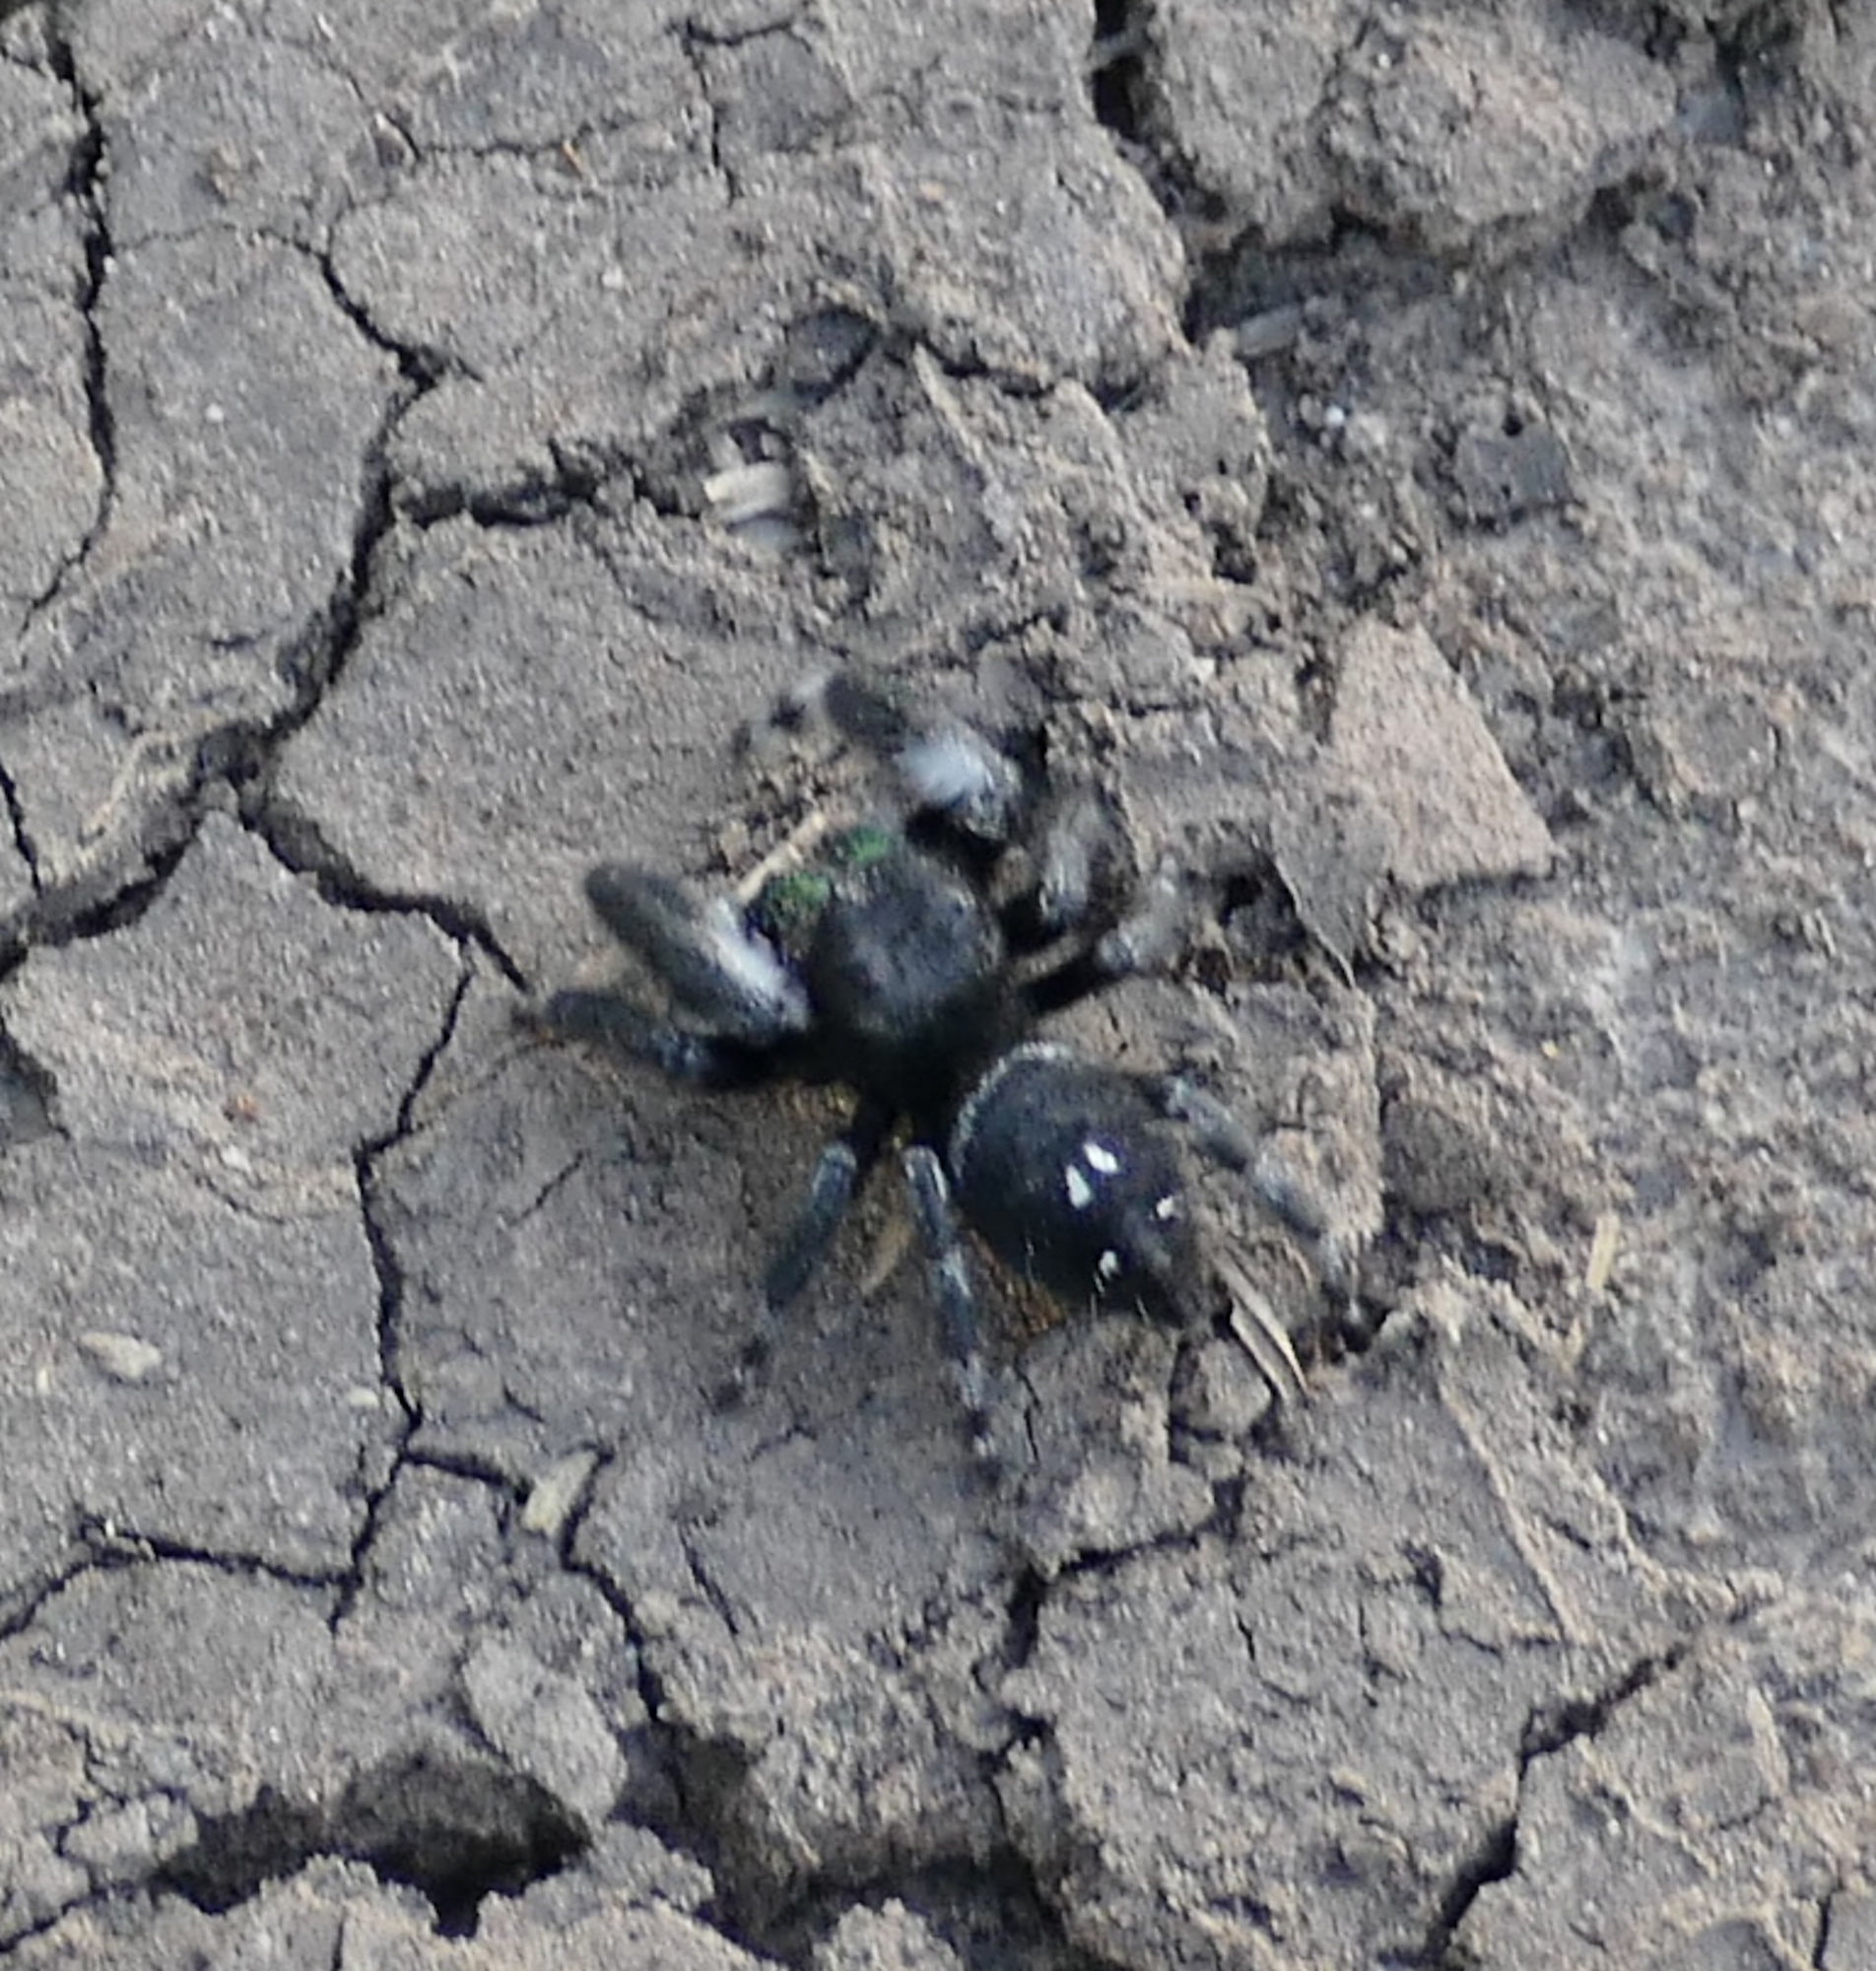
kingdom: Animalia
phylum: Arthropoda
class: Arachnida
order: Araneae
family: Salticidae
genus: Phidippus
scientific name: Phidippus audax
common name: Bold jumper
